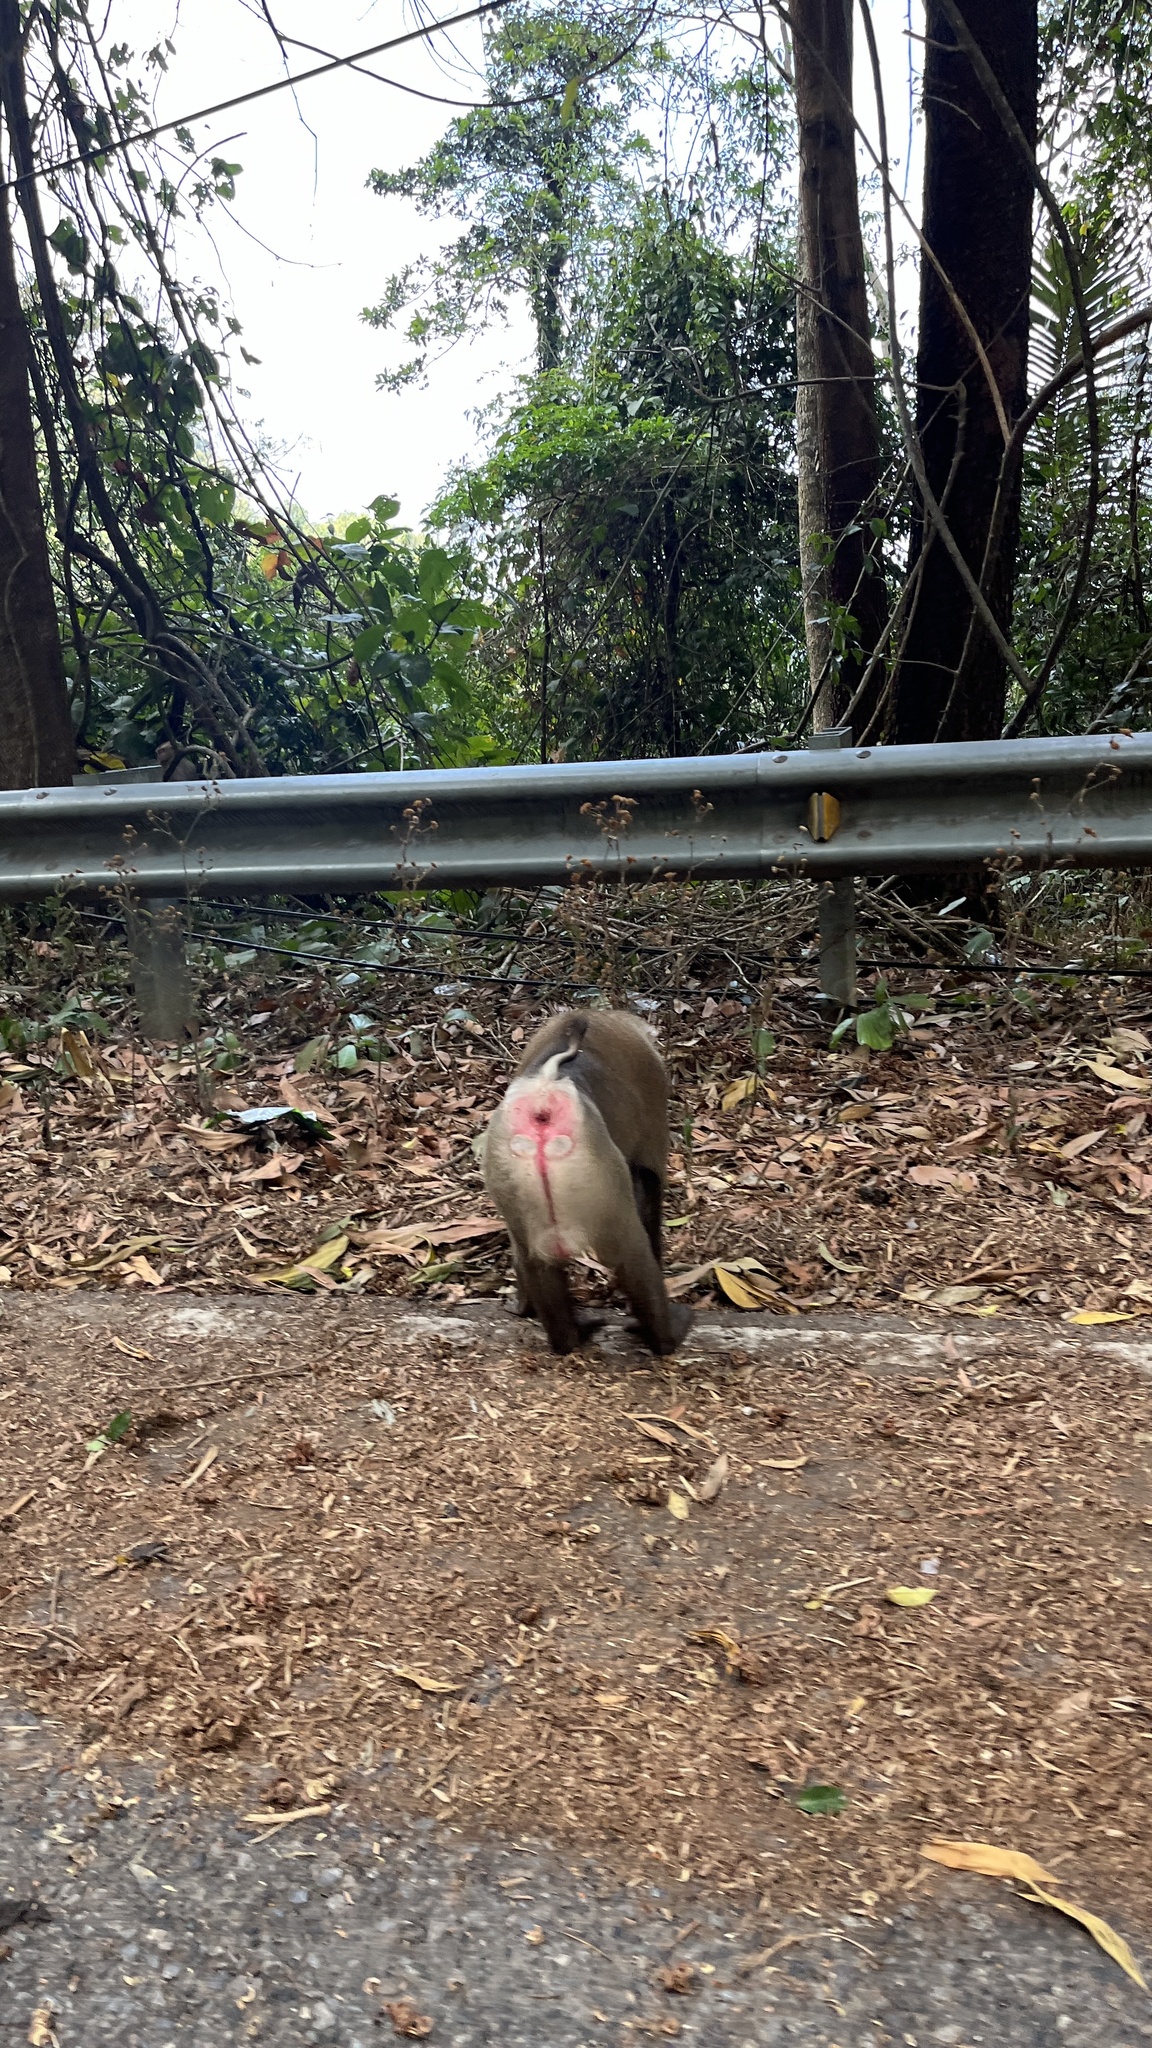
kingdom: Animalia
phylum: Chordata
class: Mammalia
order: Primates
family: Cercopithecidae
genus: Macaca
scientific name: Macaca leonina
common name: Northern pig-tailed macaque
